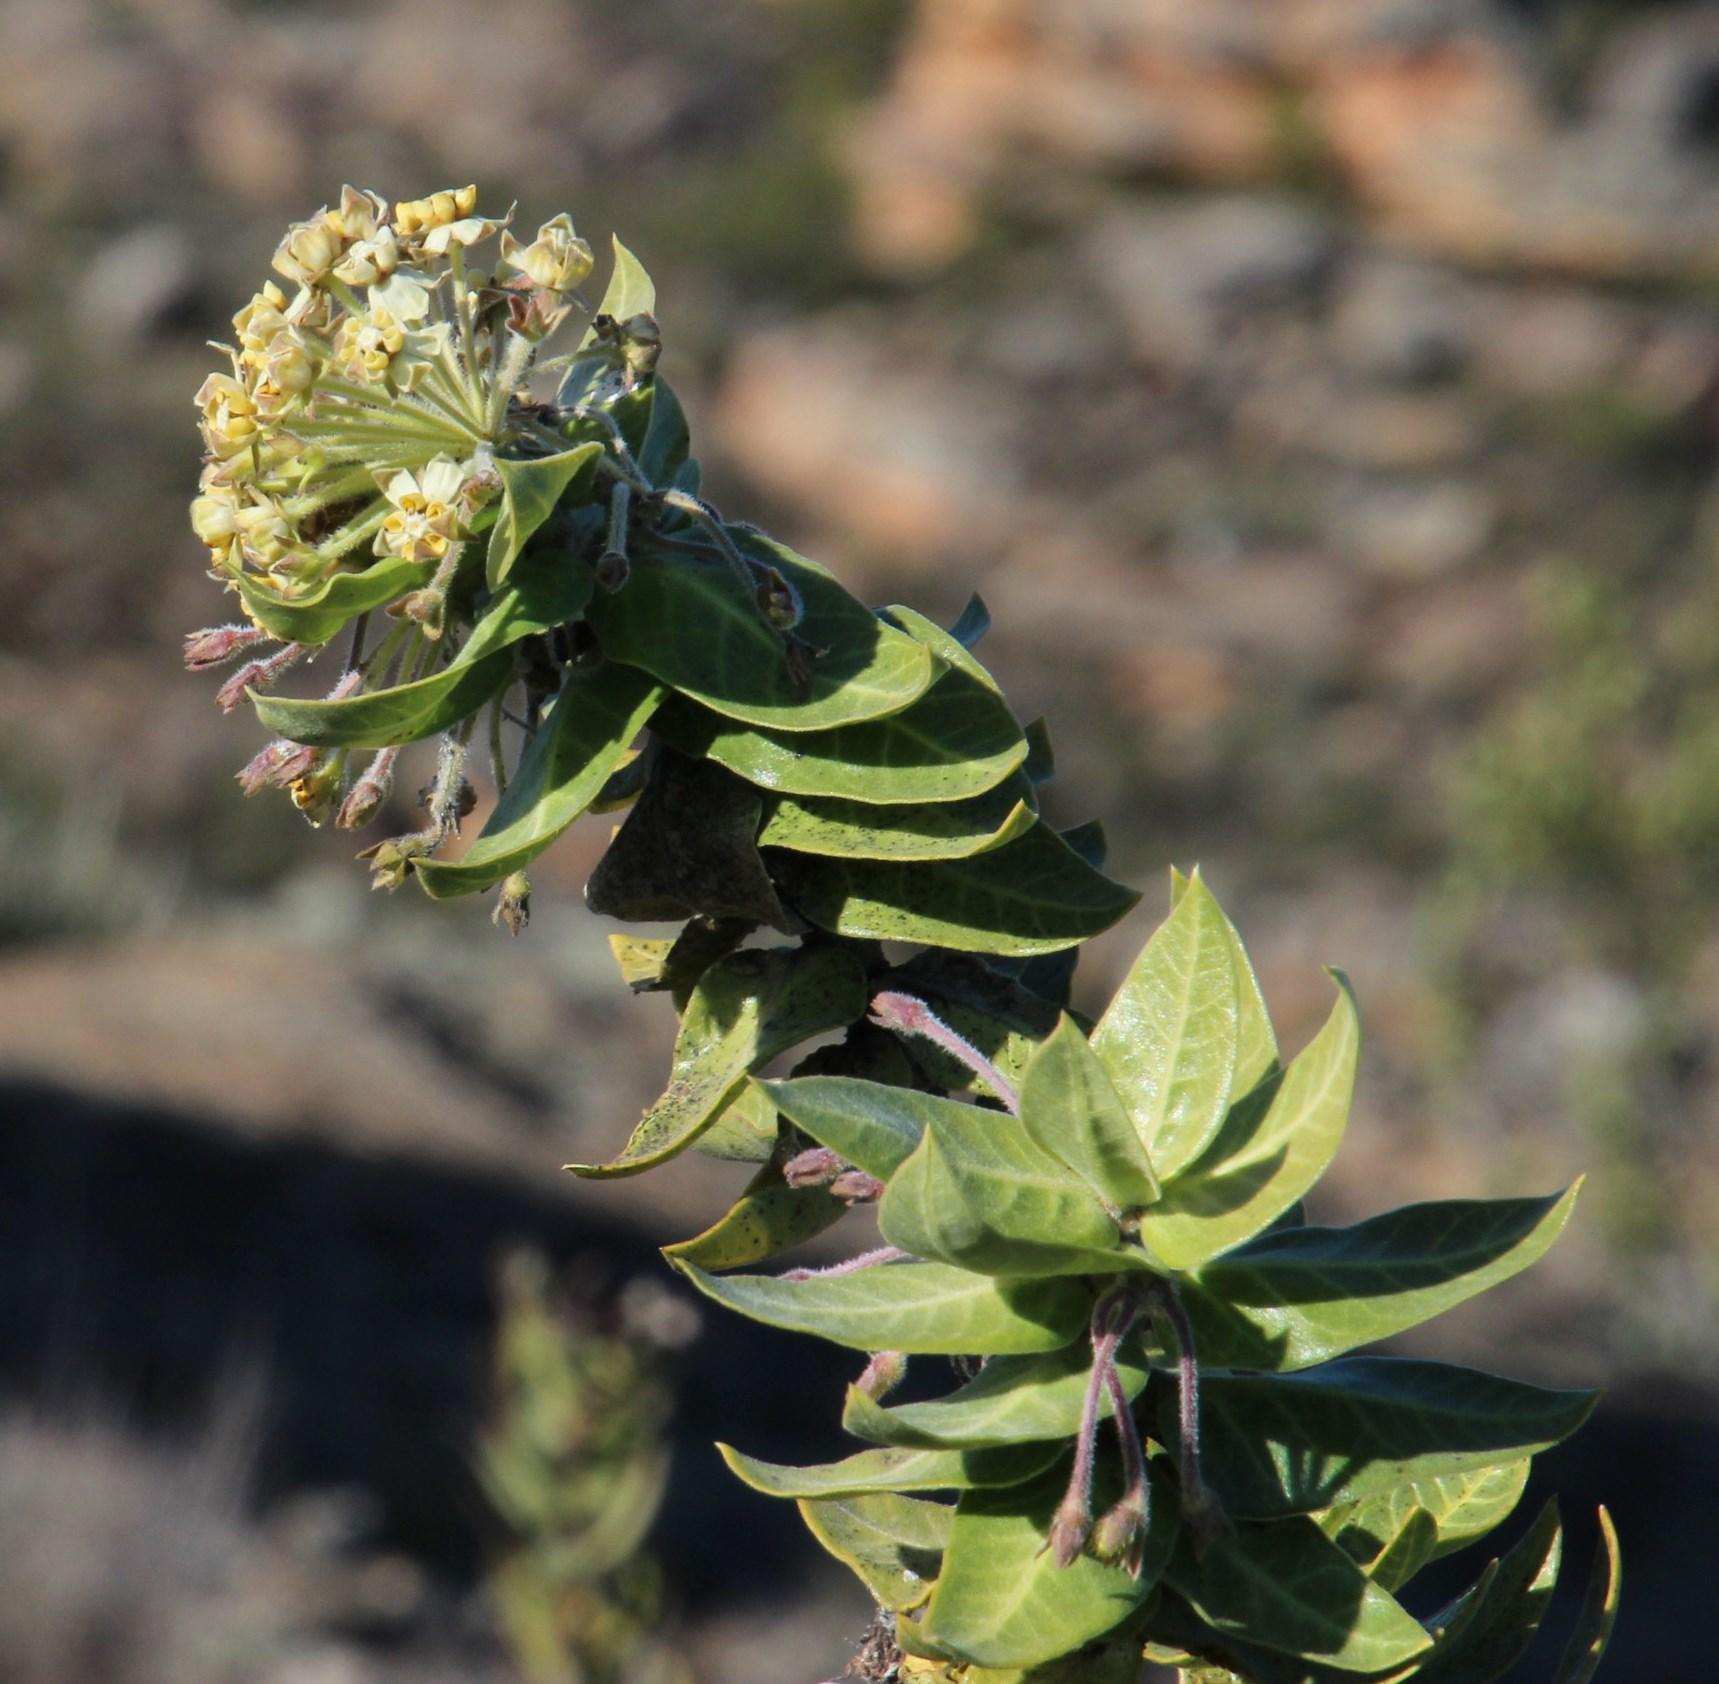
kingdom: Plantae
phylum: Tracheophyta
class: Magnoliopsida
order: Gentianales
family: Apocynaceae
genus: Gomphocarpus
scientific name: Gomphocarpus cancellatus
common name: Wild cotton
